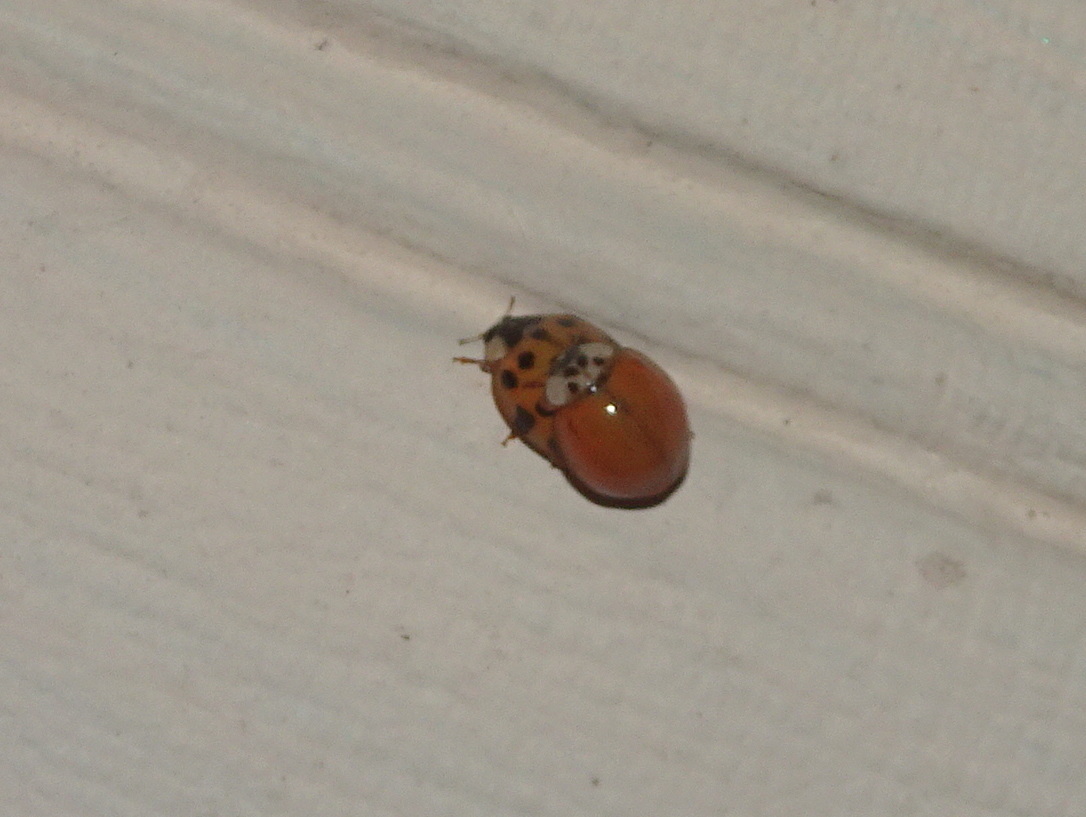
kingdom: Animalia
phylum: Arthropoda
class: Insecta
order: Coleoptera
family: Coccinellidae
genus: Harmonia
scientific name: Harmonia axyridis
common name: Harlequin ladybird
